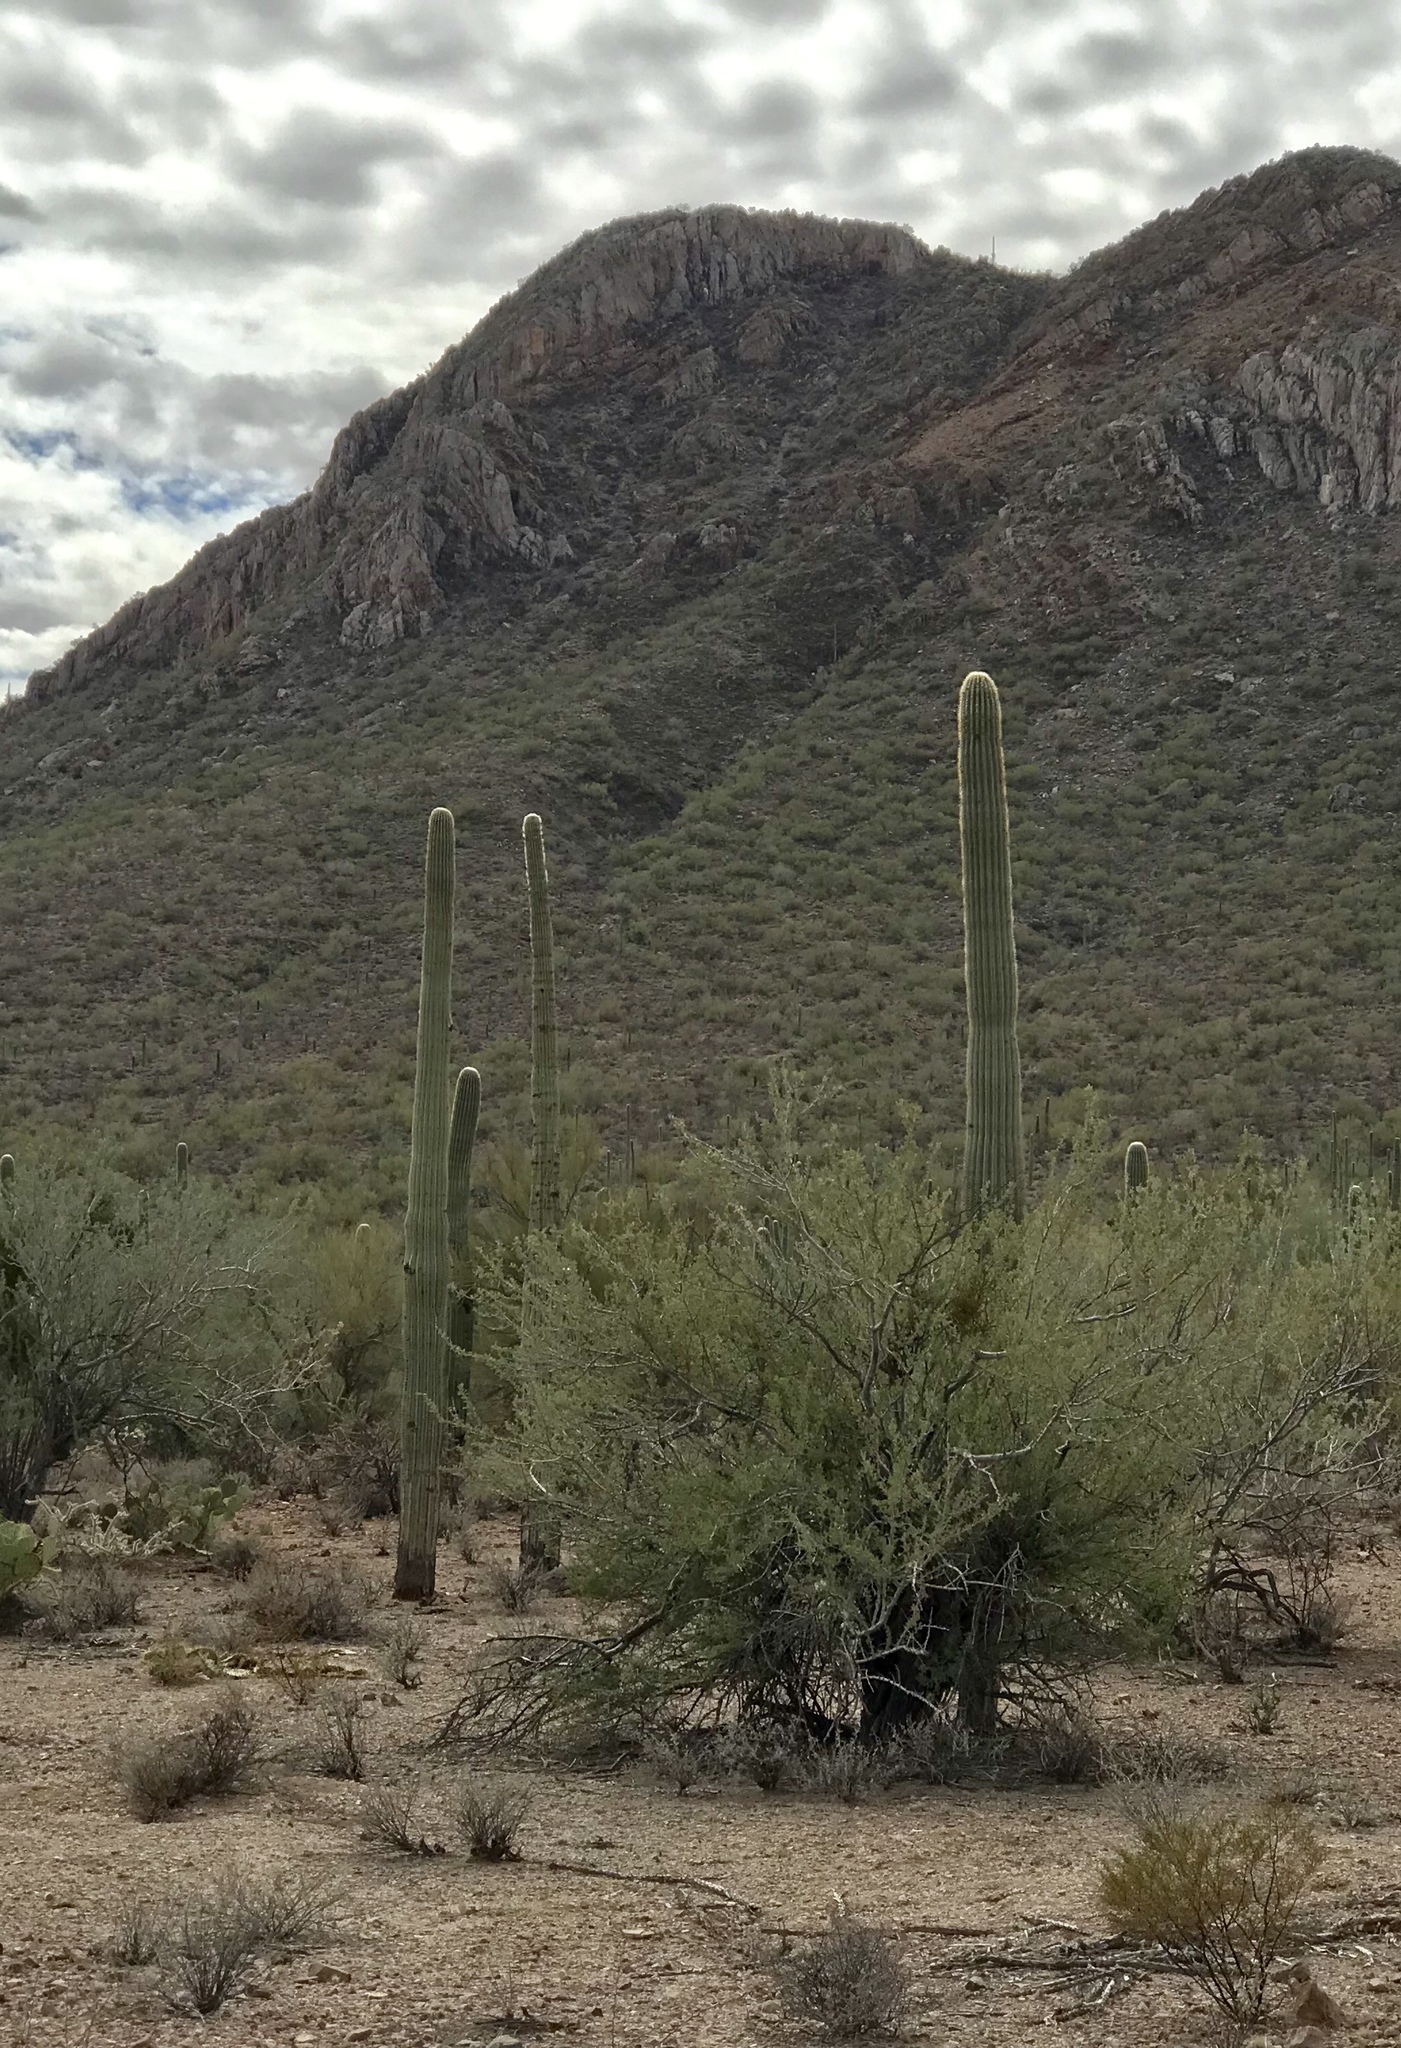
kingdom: Plantae
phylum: Tracheophyta
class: Magnoliopsida
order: Caryophyllales
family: Cactaceae
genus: Carnegiea
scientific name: Carnegiea gigantea
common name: Saguaro
